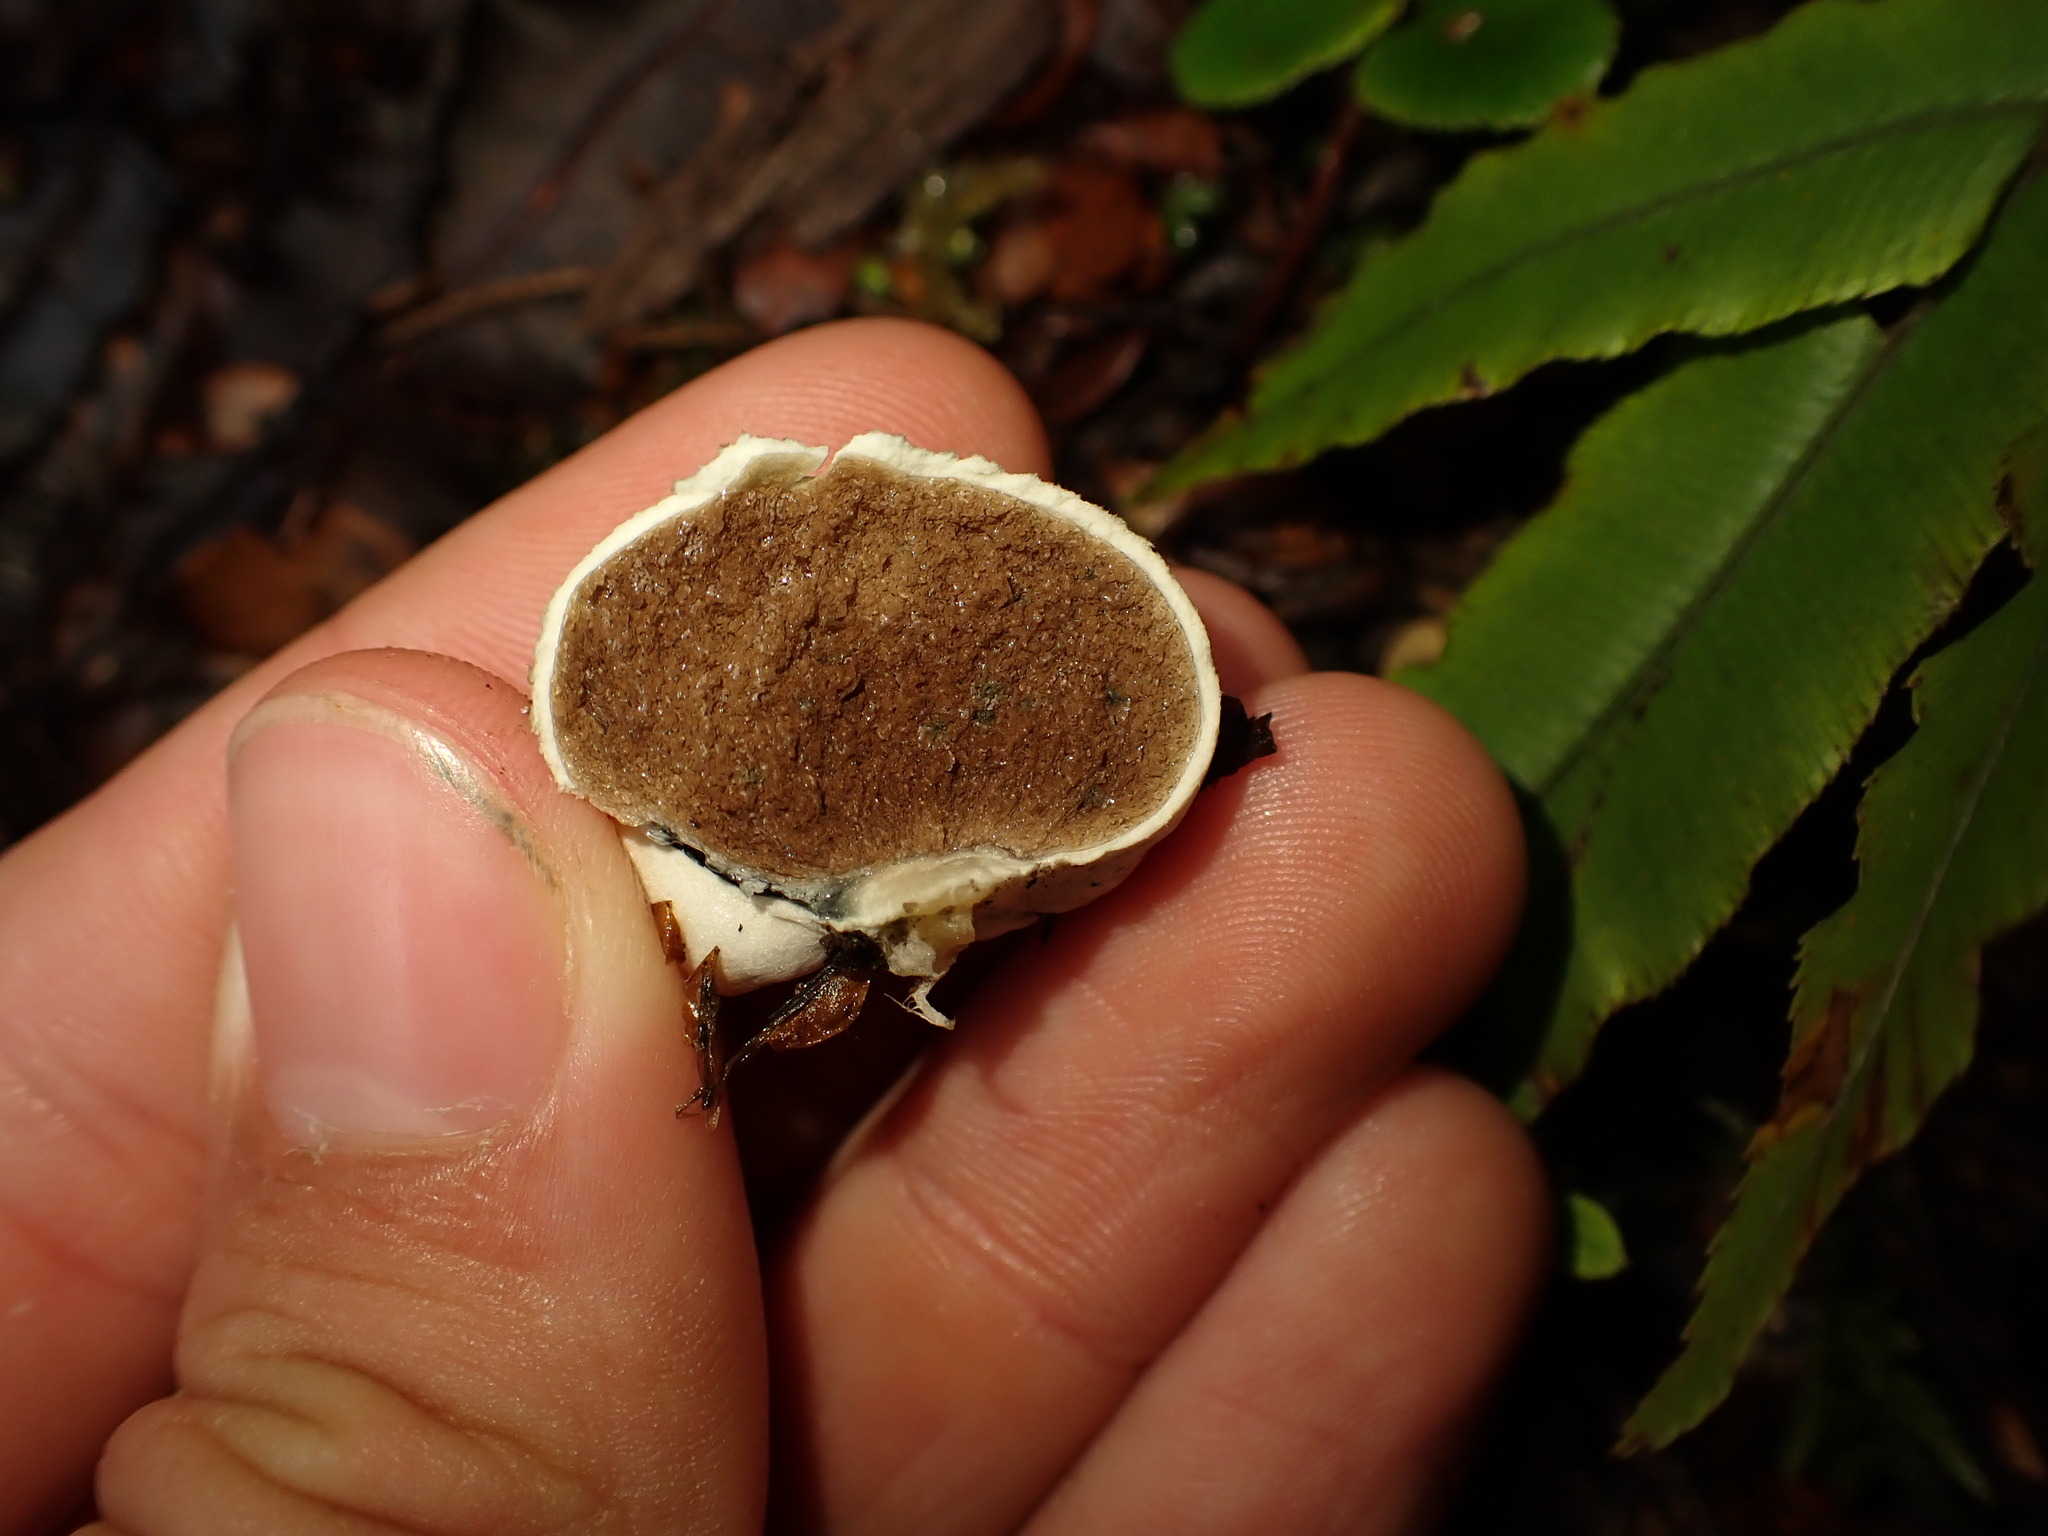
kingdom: Fungi
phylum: Basidiomycota
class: Agaricomycetes
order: Boletales
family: Boletaceae
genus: Leccinum
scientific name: Leccinum pachyderme
